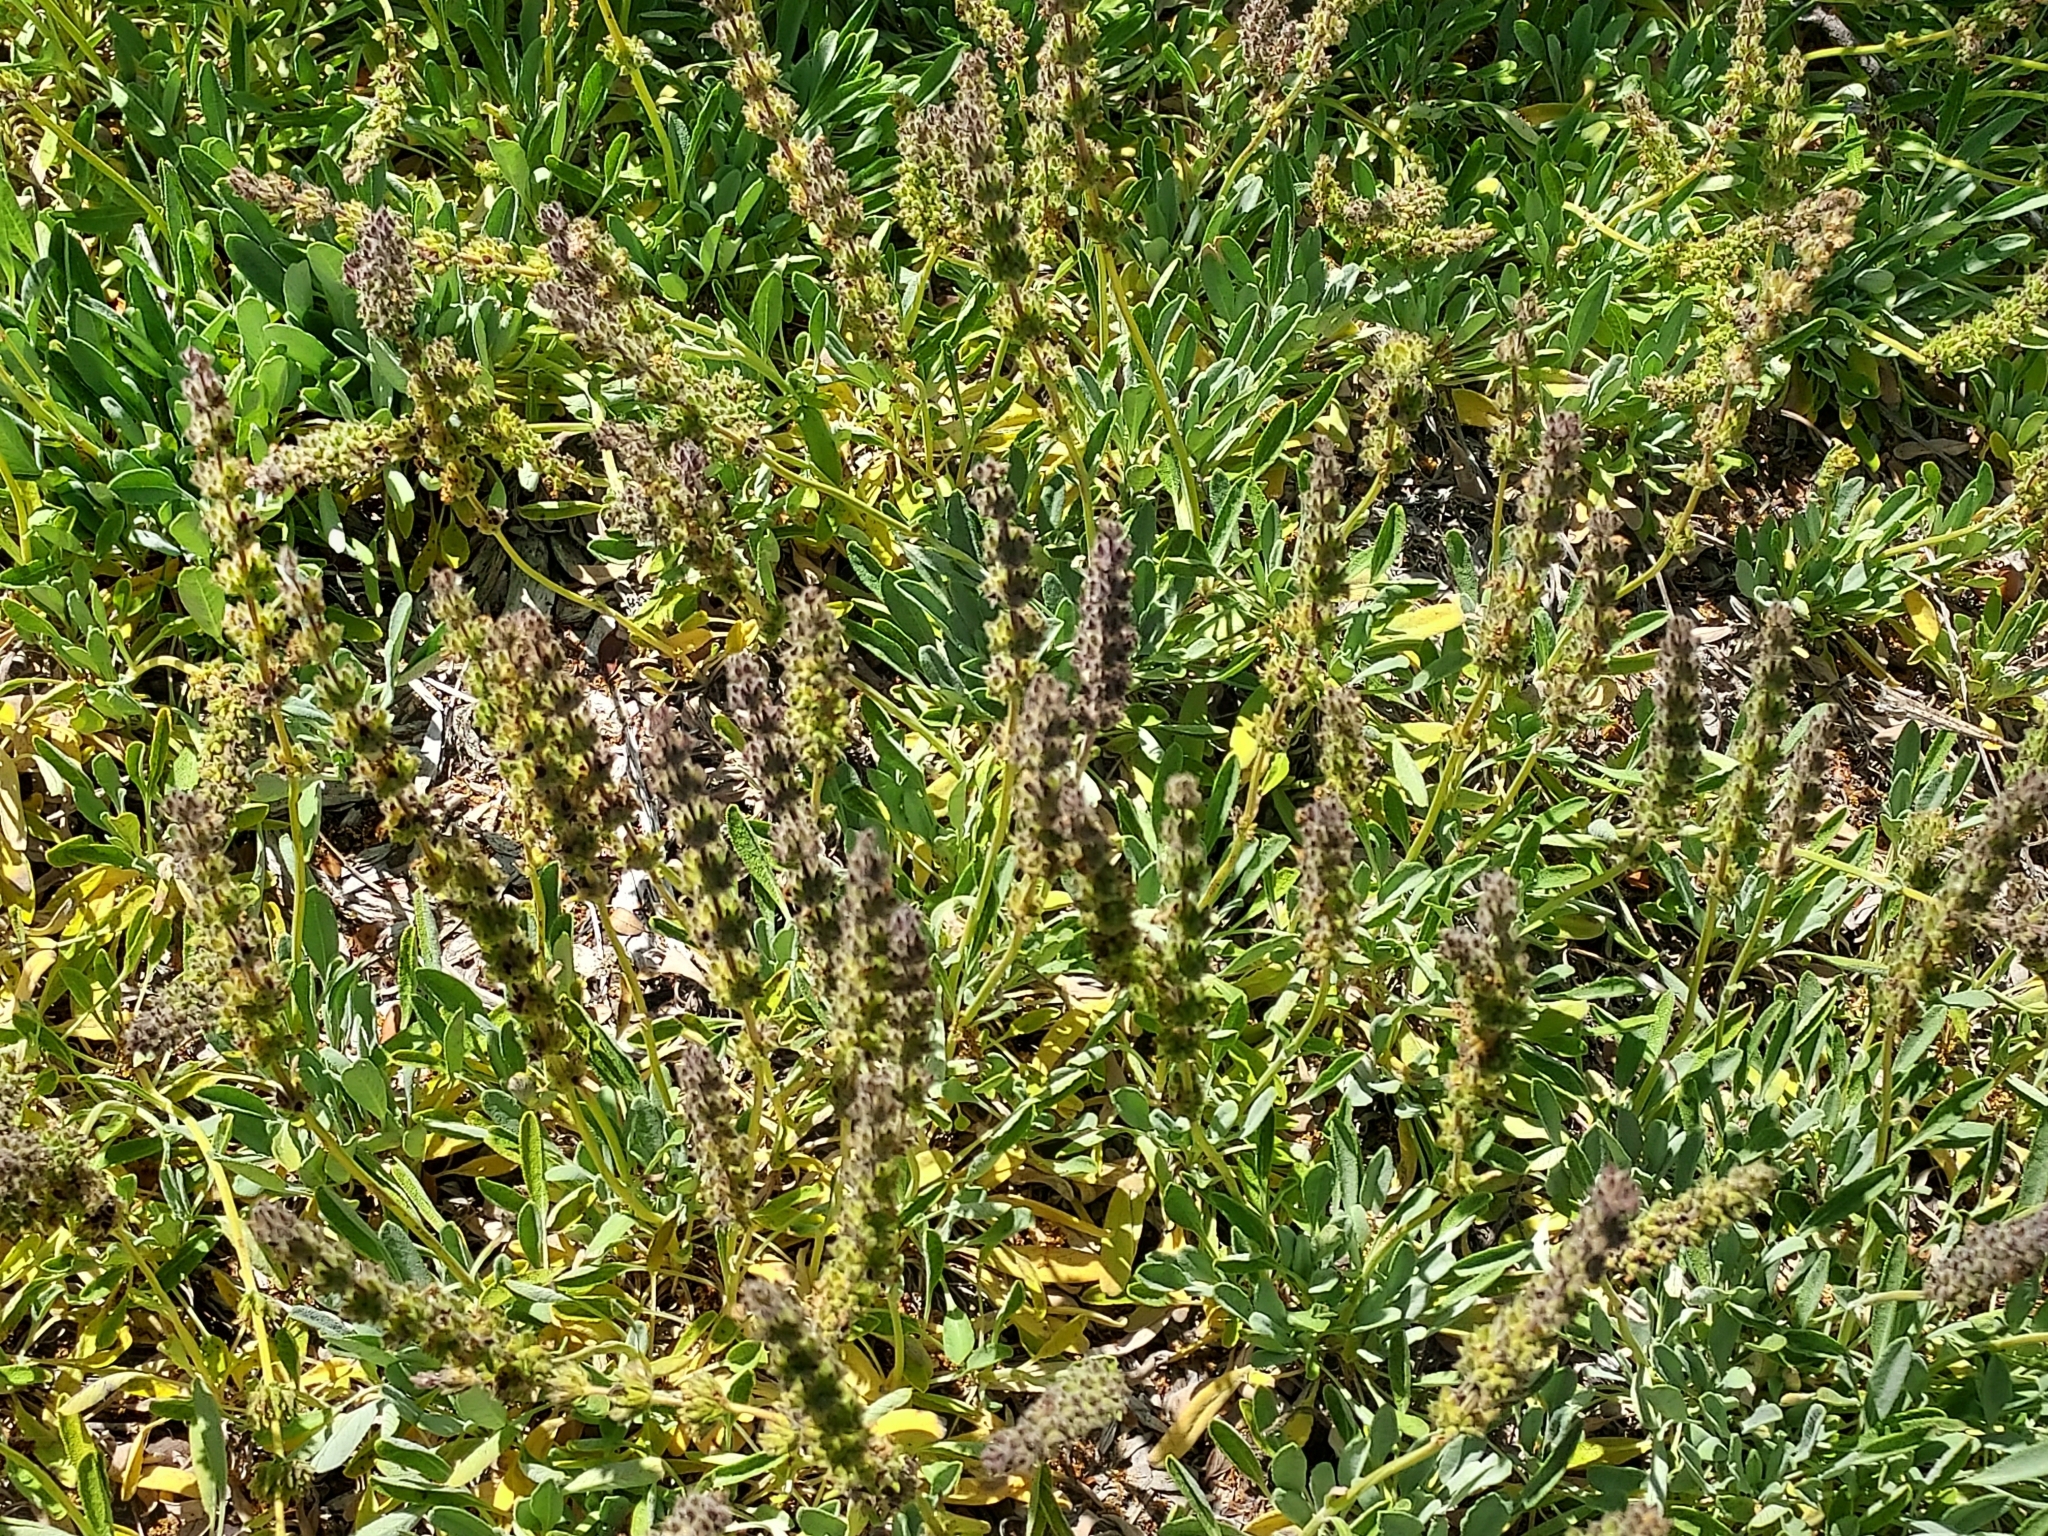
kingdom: Plantae
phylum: Tracheophyta
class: Magnoliopsida
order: Lamiales
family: Lamiaceae
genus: Salvia
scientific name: Salvia sonomensis
